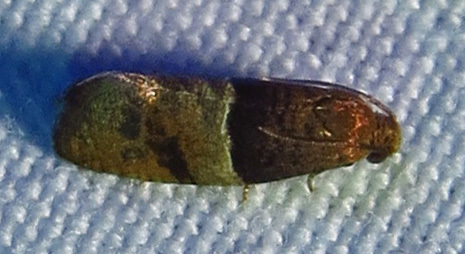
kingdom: Animalia
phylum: Arthropoda
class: Insecta
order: Lepidoptera
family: Tortricidae
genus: Larisa
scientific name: Larisa subsolana
